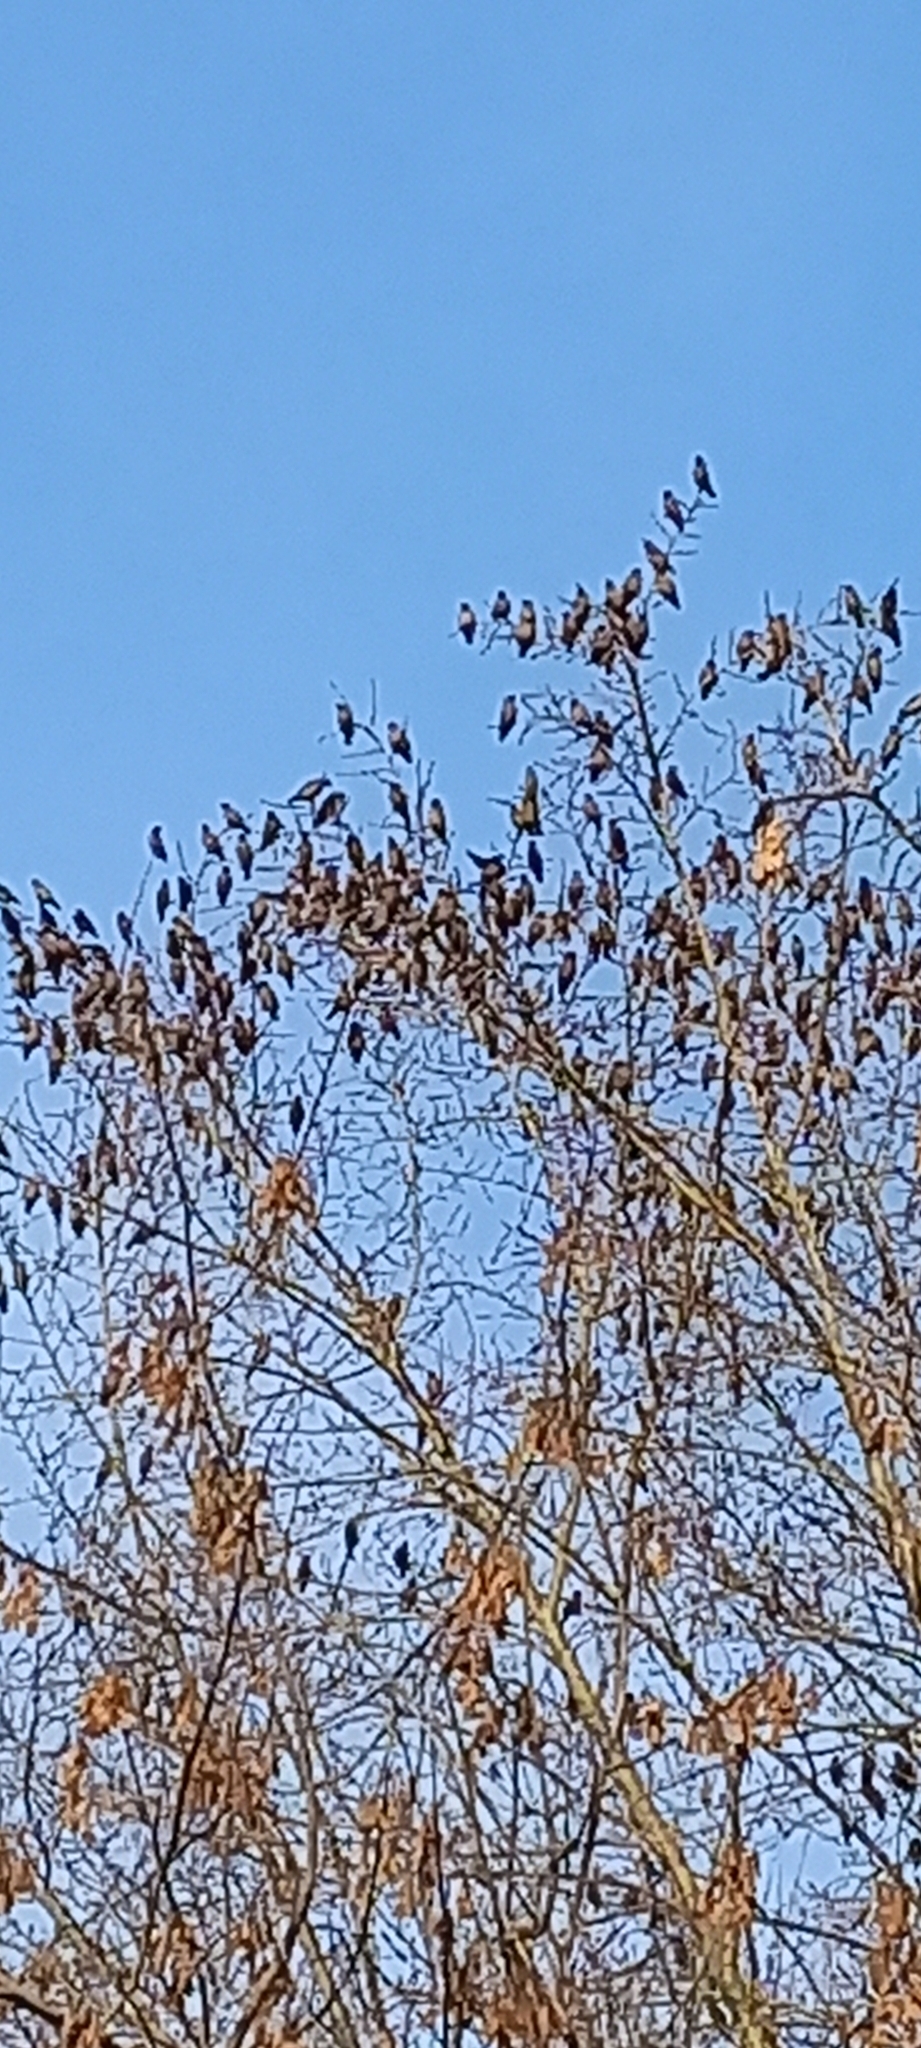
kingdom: Animalia
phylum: Chordata
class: Aves
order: Passeriformes
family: Bombycillidae
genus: Bombycilla
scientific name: Bombycilla garrulus
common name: Bohemian waxwing
